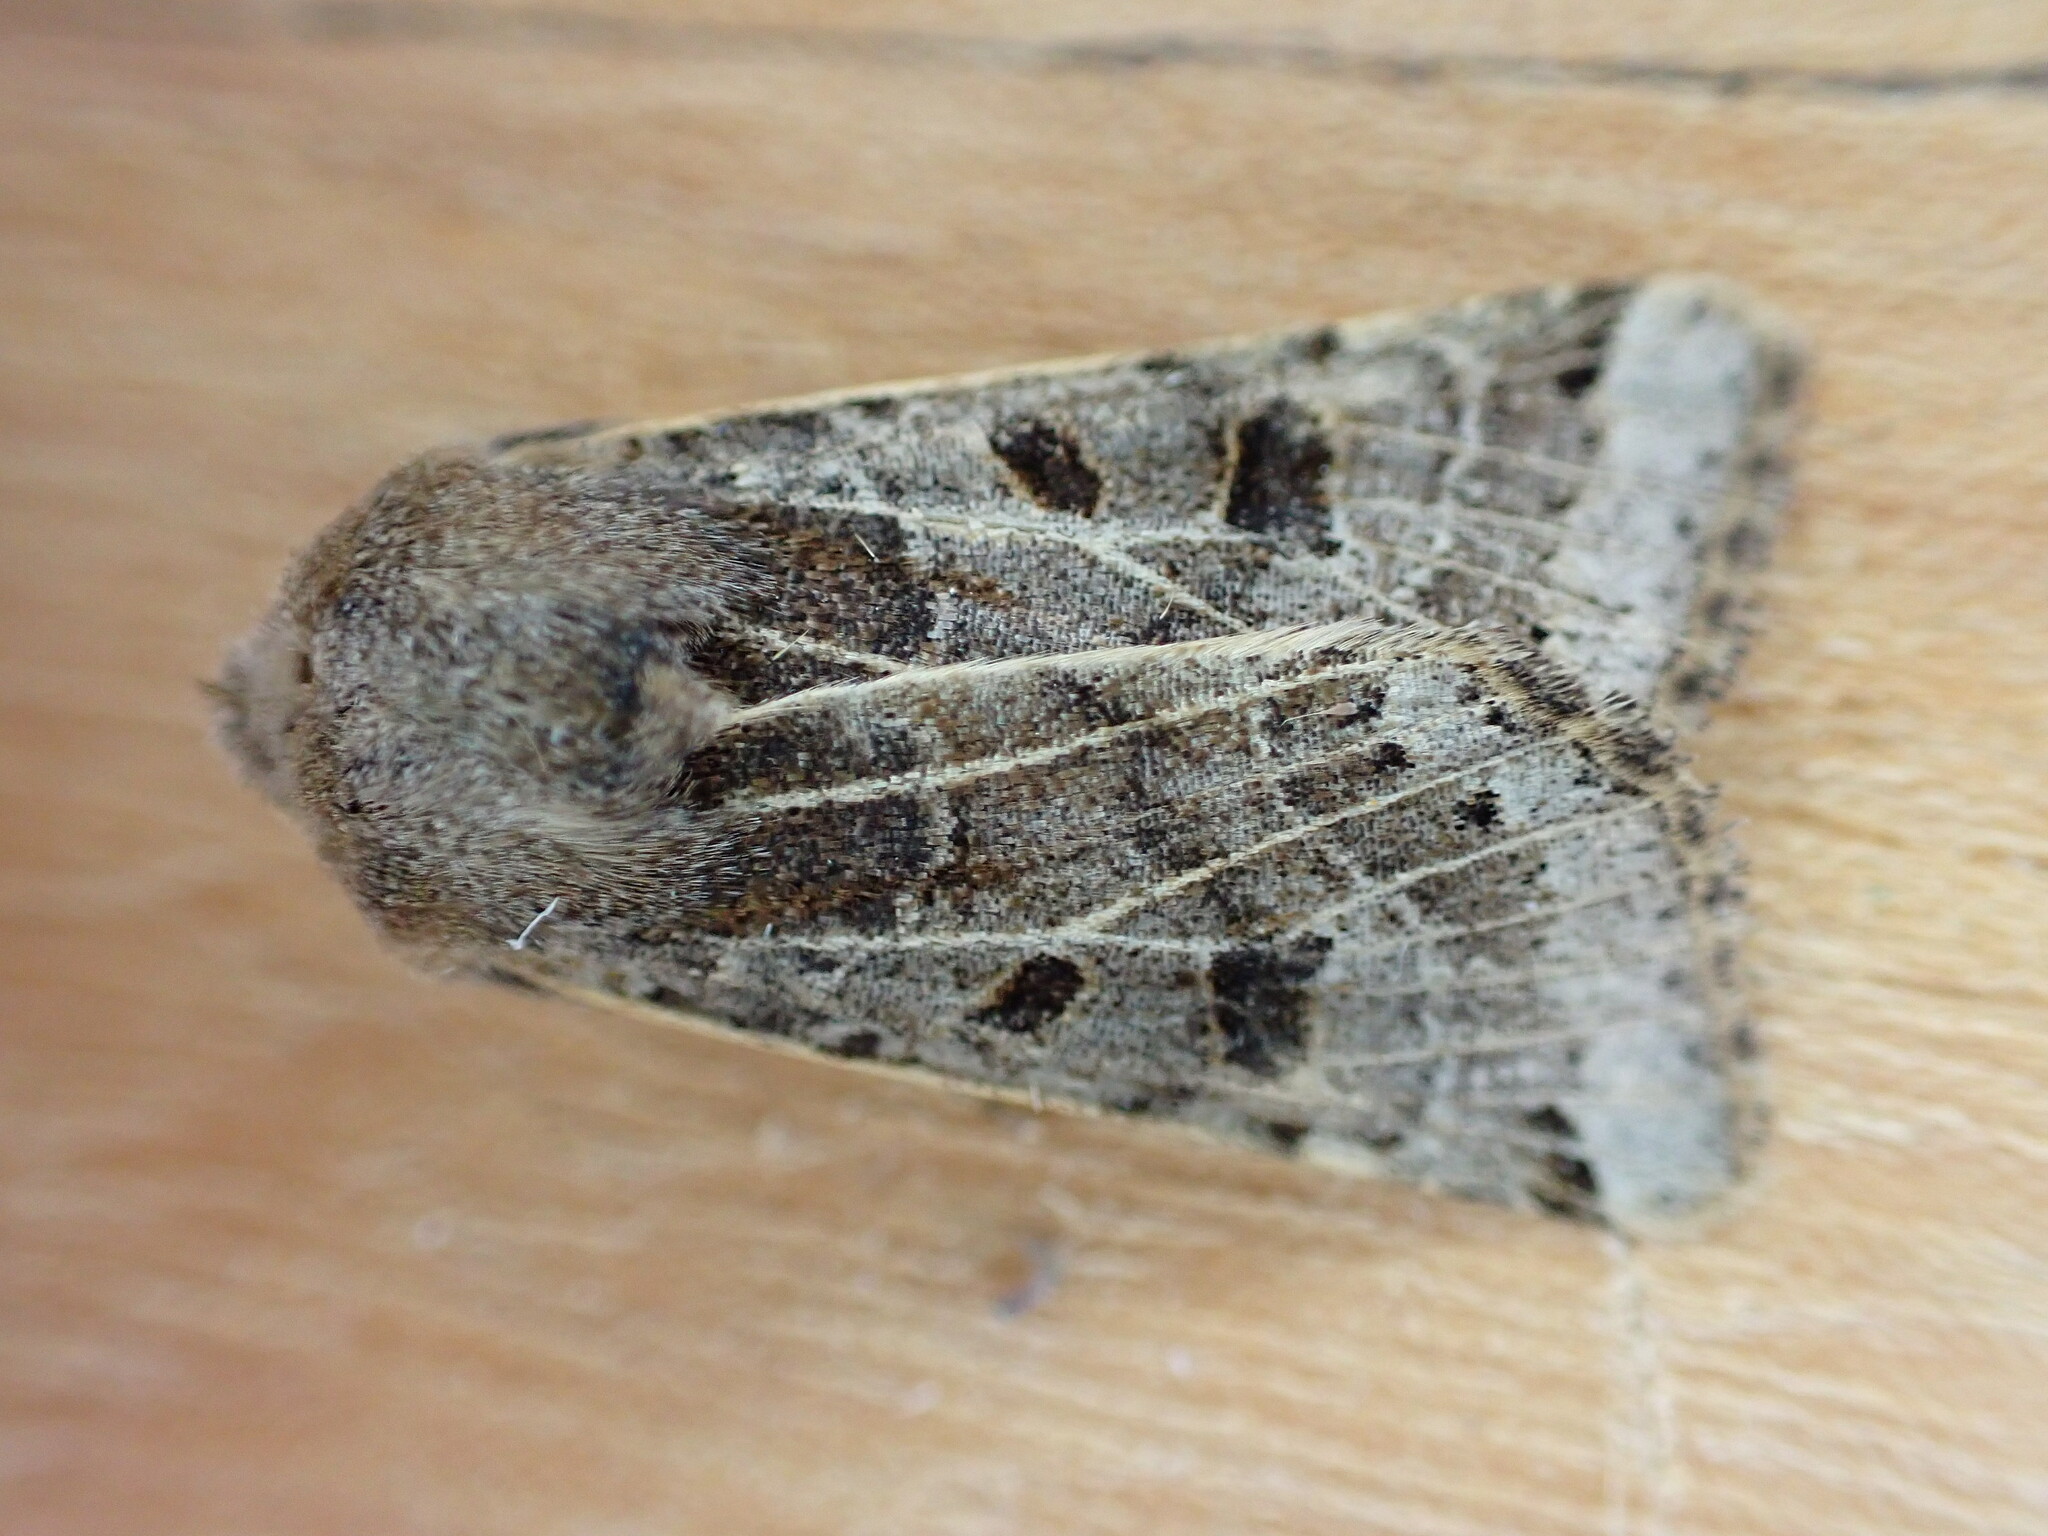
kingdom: Animalia
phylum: Arthropoda
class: Insecta
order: Lepidoptera
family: Noctuidae
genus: Agrochola
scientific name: Agrochola lunosa
